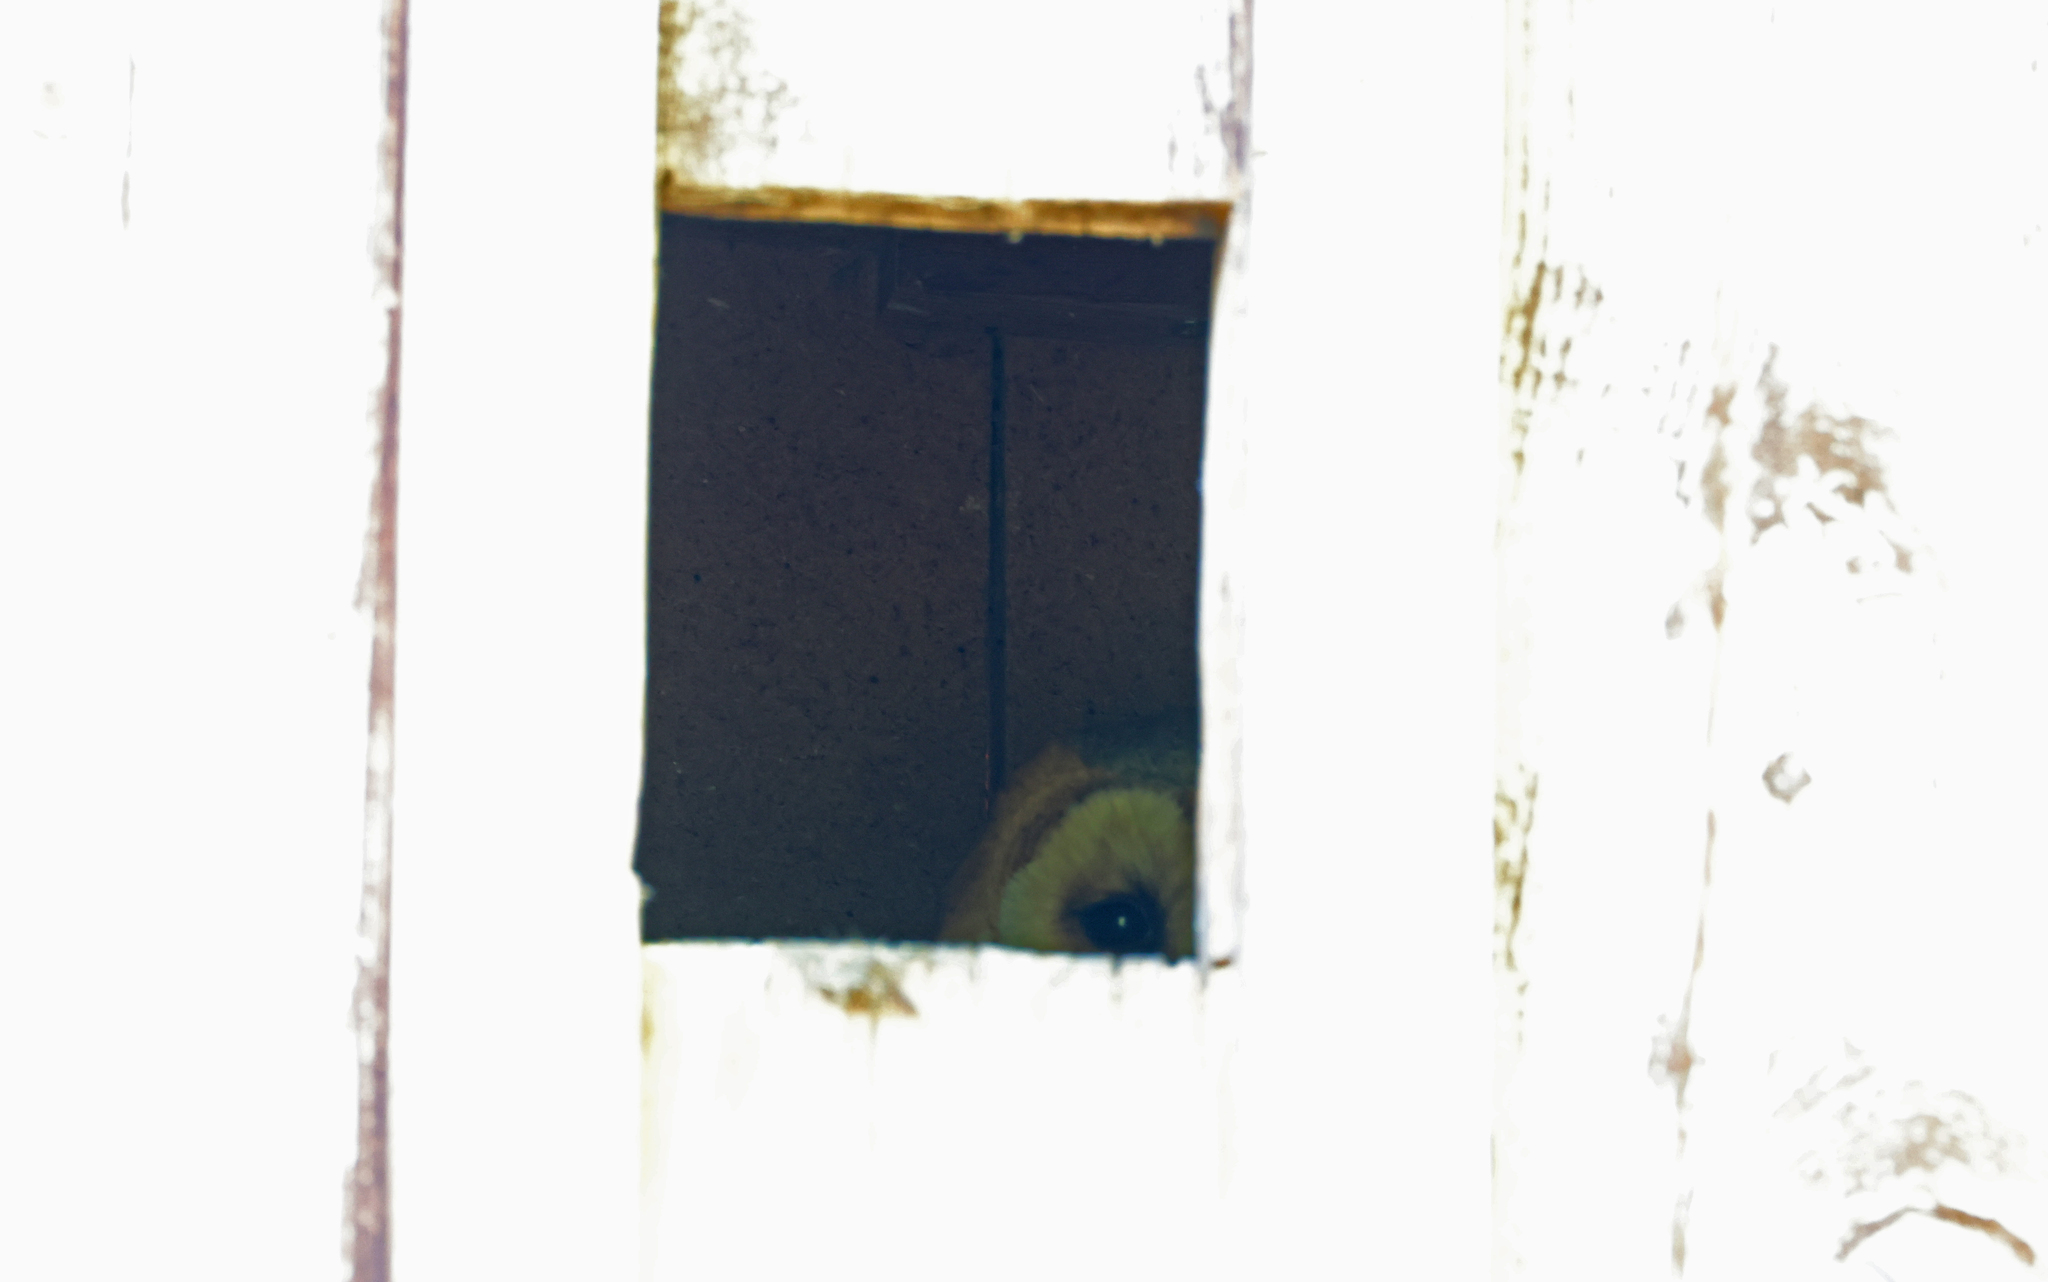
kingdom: Animalia
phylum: Chordata
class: Aves
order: Strigiformes
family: Tytonidae
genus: Tyto
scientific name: Tyto alba
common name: Barn owl
